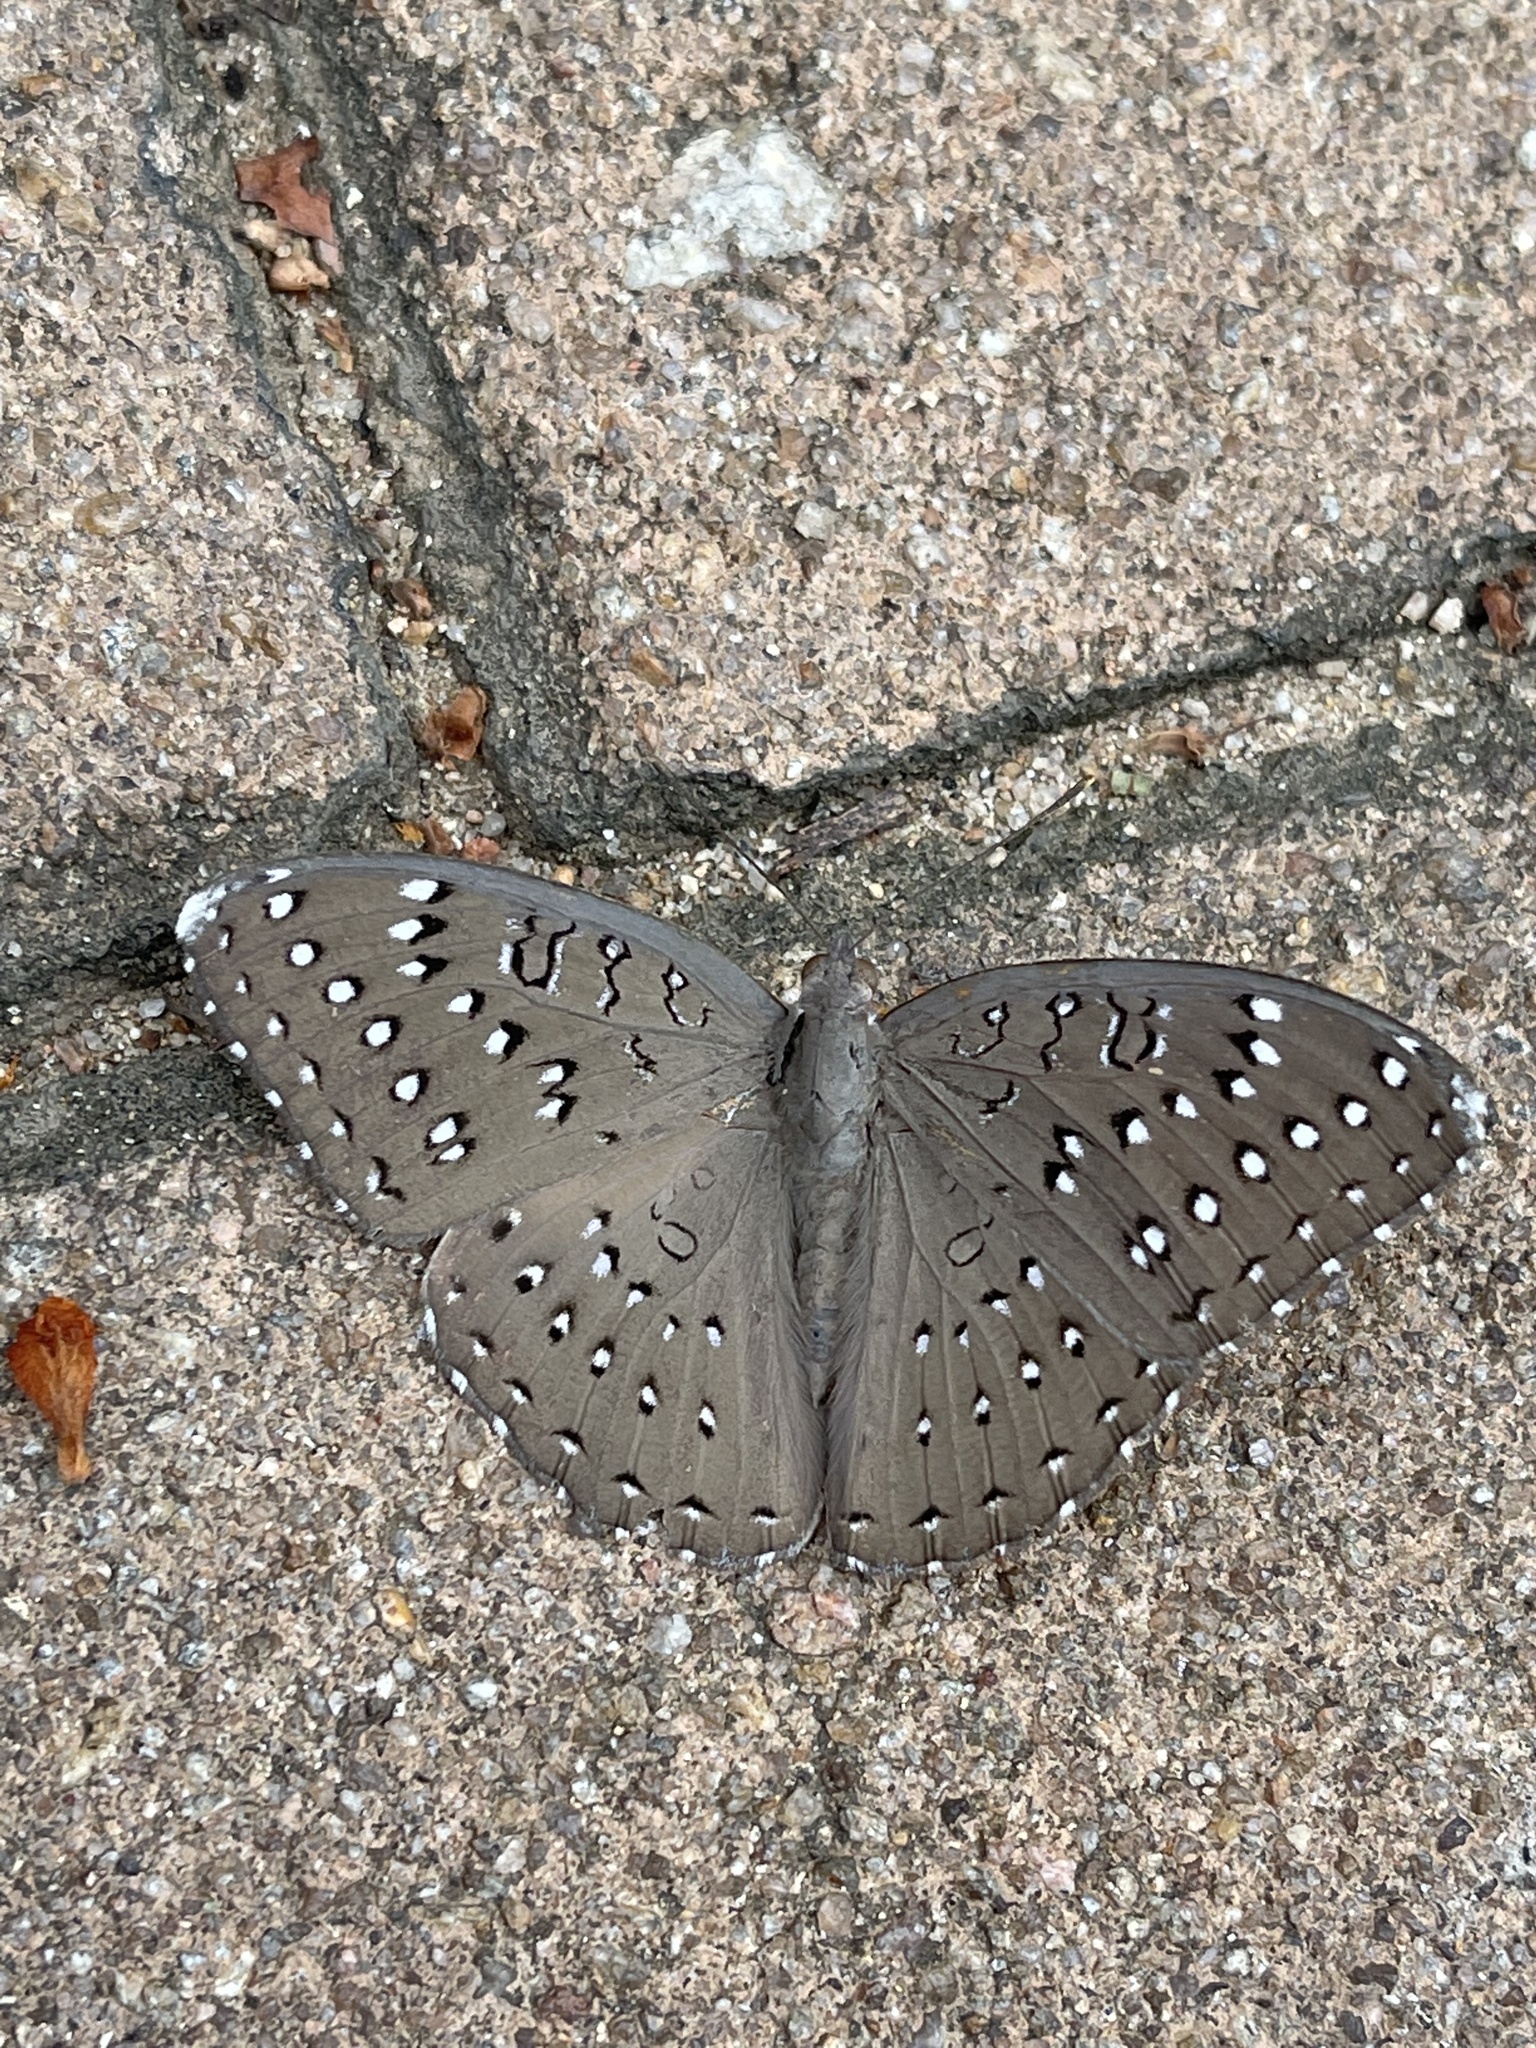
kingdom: Animalia
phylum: Arthropoda
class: Insecta
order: Lepidoptera
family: Nymphalidae
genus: Hamanumida
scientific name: Hamanumida daedalus
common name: Guinea-fowl butterfly
